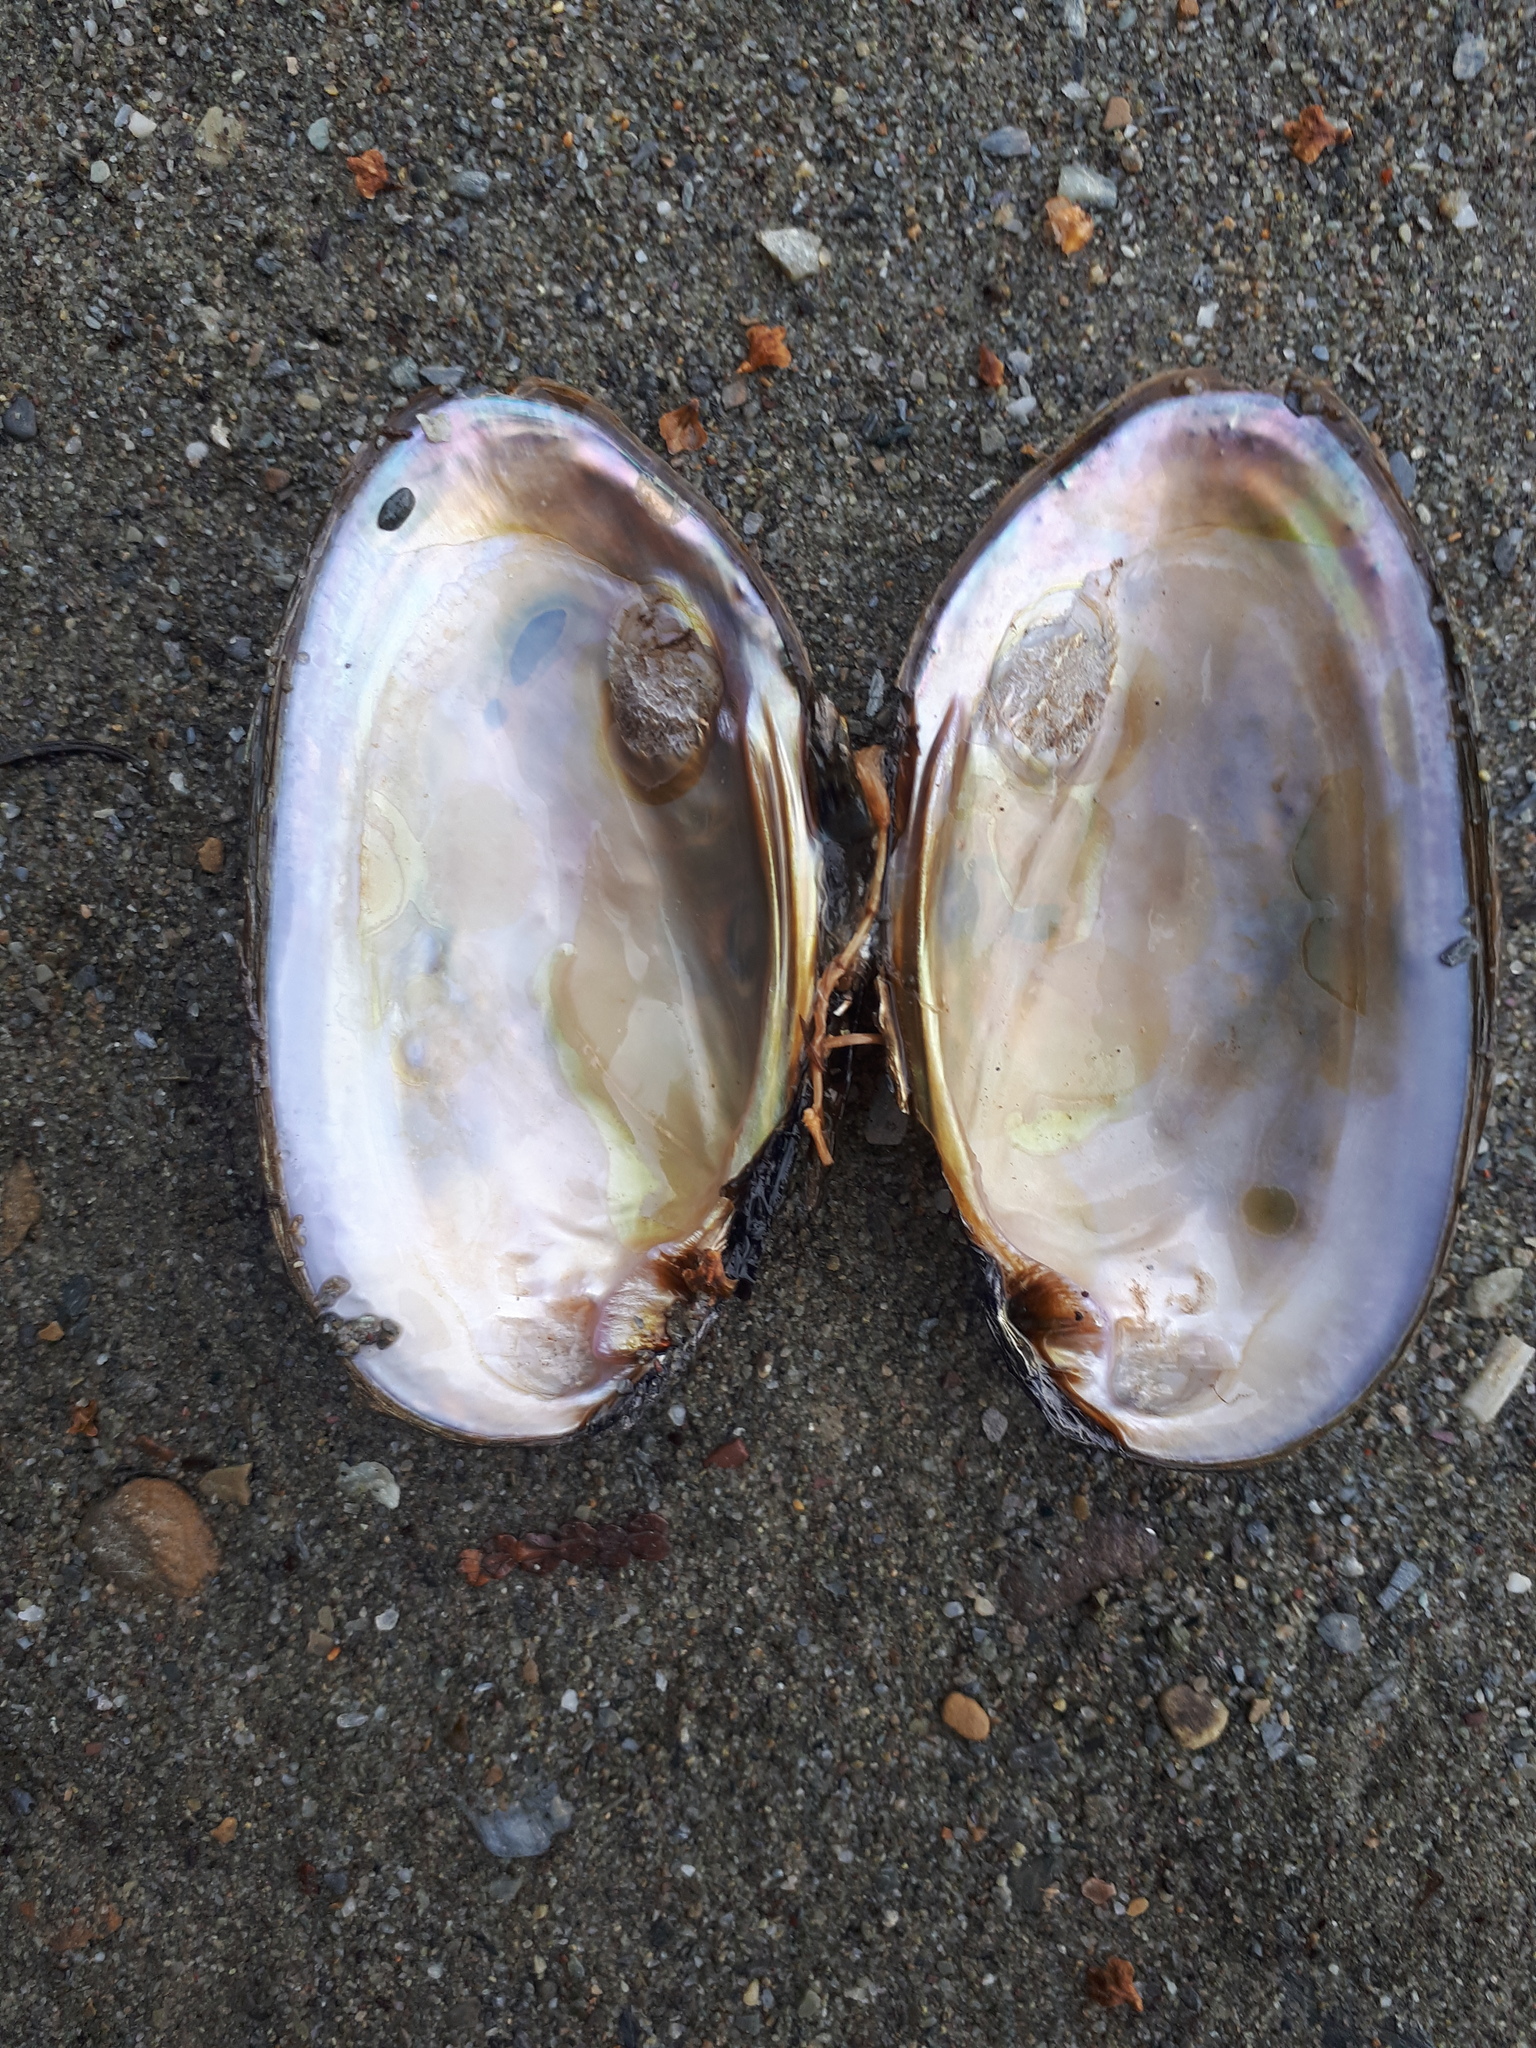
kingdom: Animalia
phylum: Mollusca
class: Bivalvia
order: Unionida
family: Unionidae
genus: Elliptio
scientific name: Elliptio complanata
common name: Eastern elliptio
